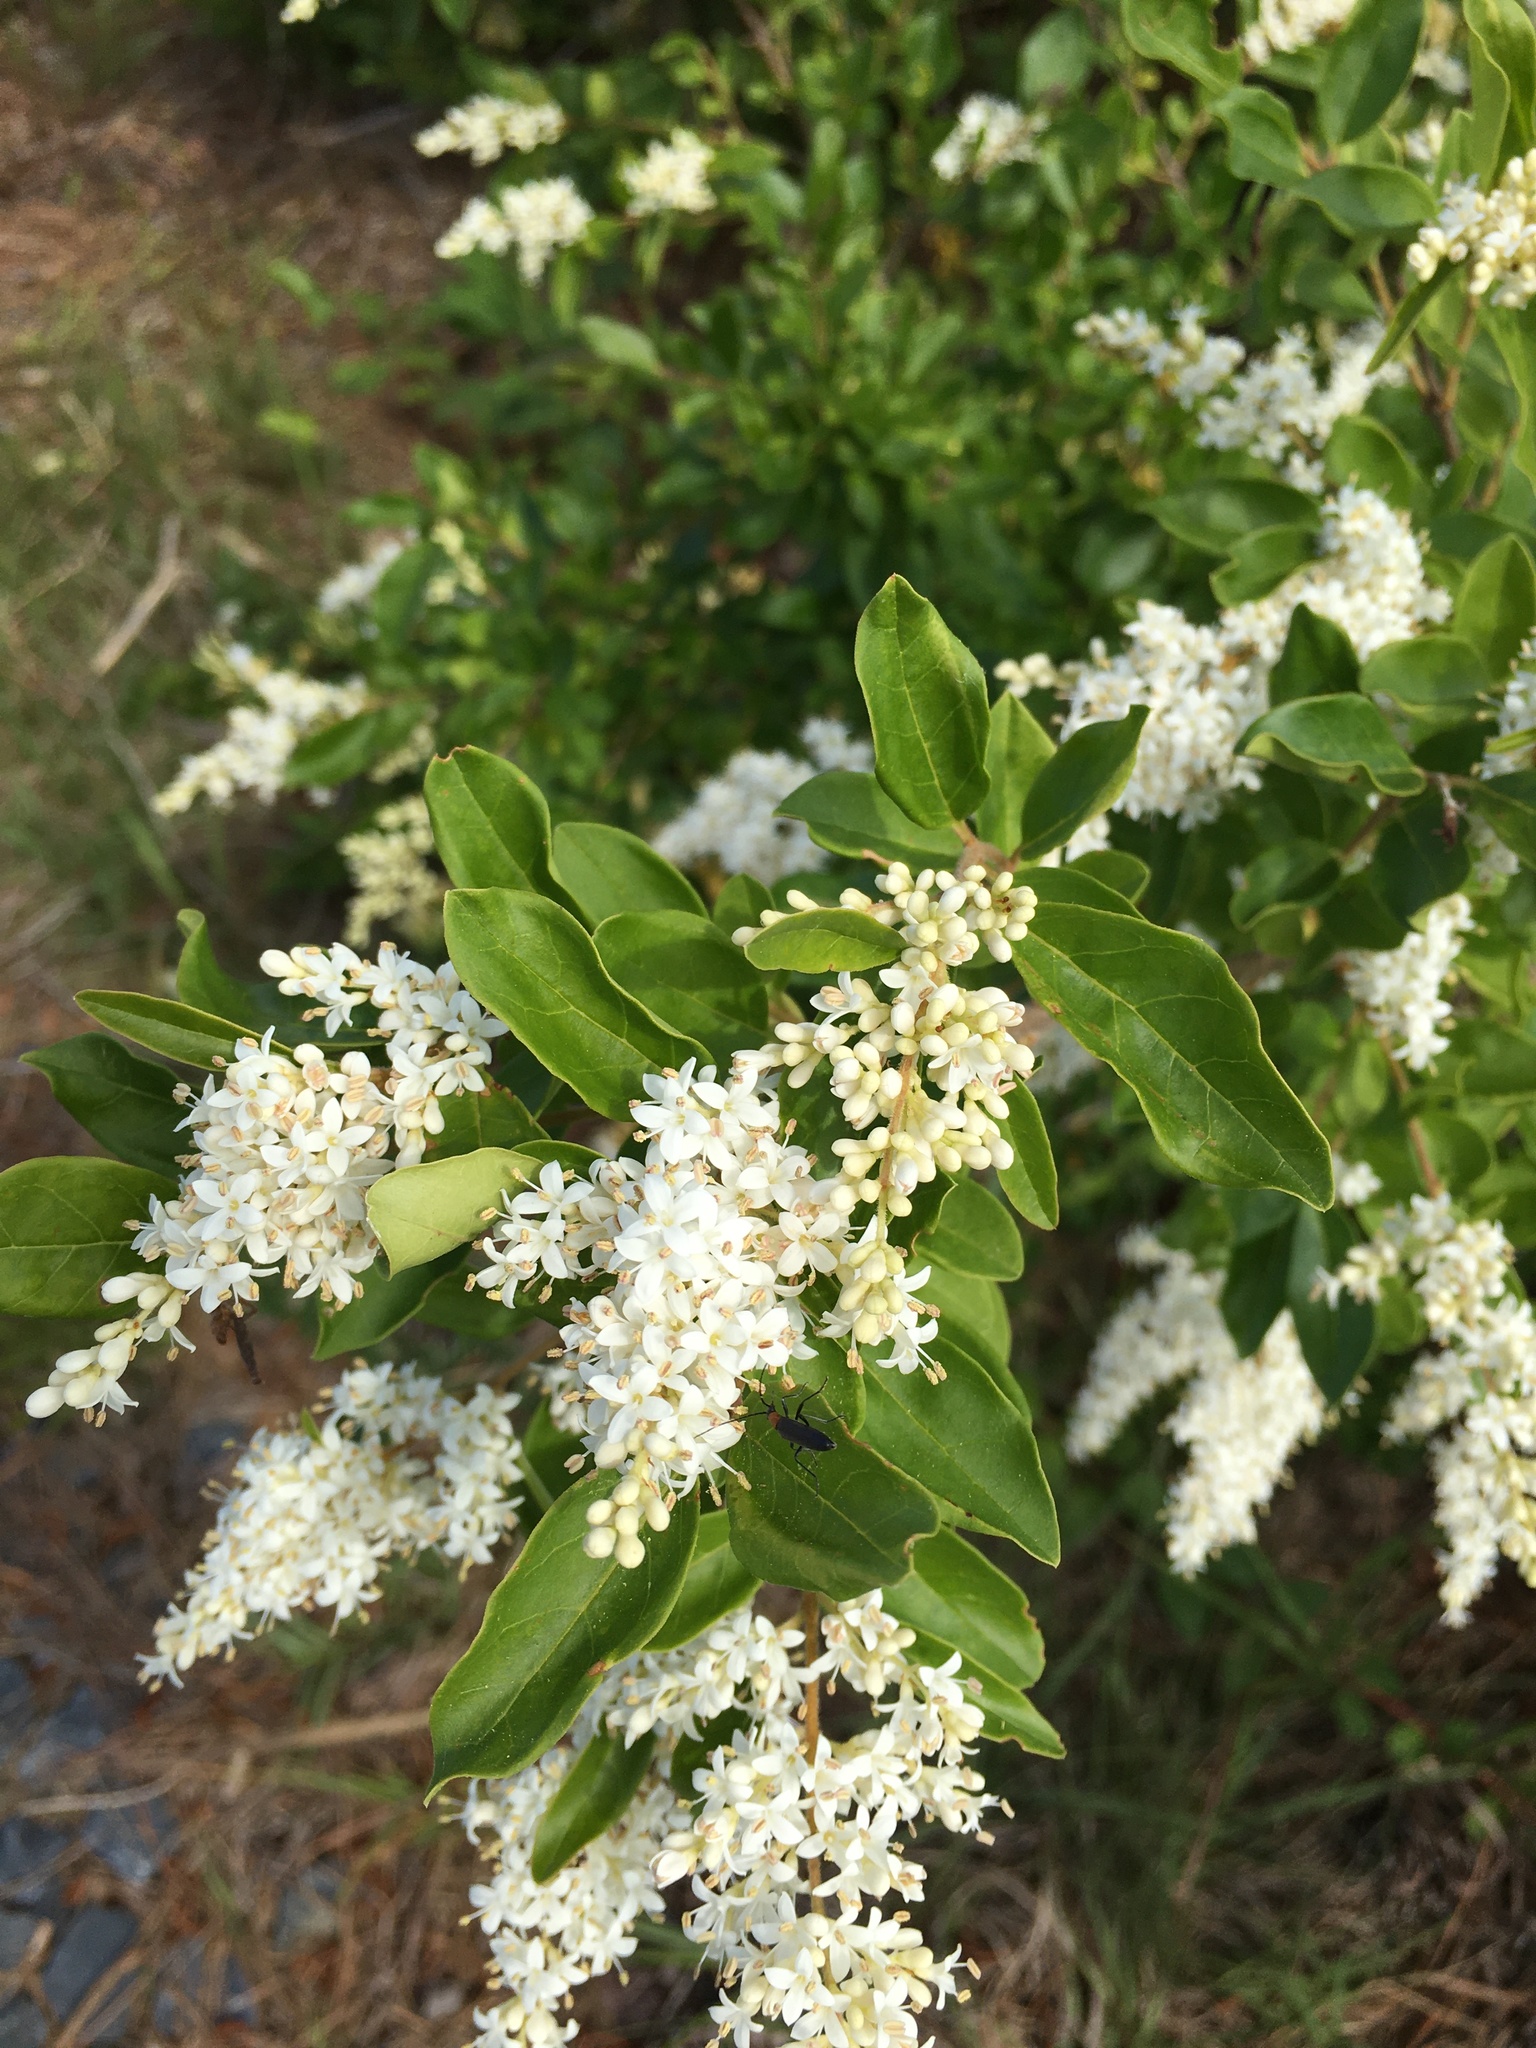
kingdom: Plantae
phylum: Tracheophyta
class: Magnoliopsida
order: Lamiales
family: Oleaceae
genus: Ligustrum
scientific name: Ligustrum sinense
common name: Chinese privet
